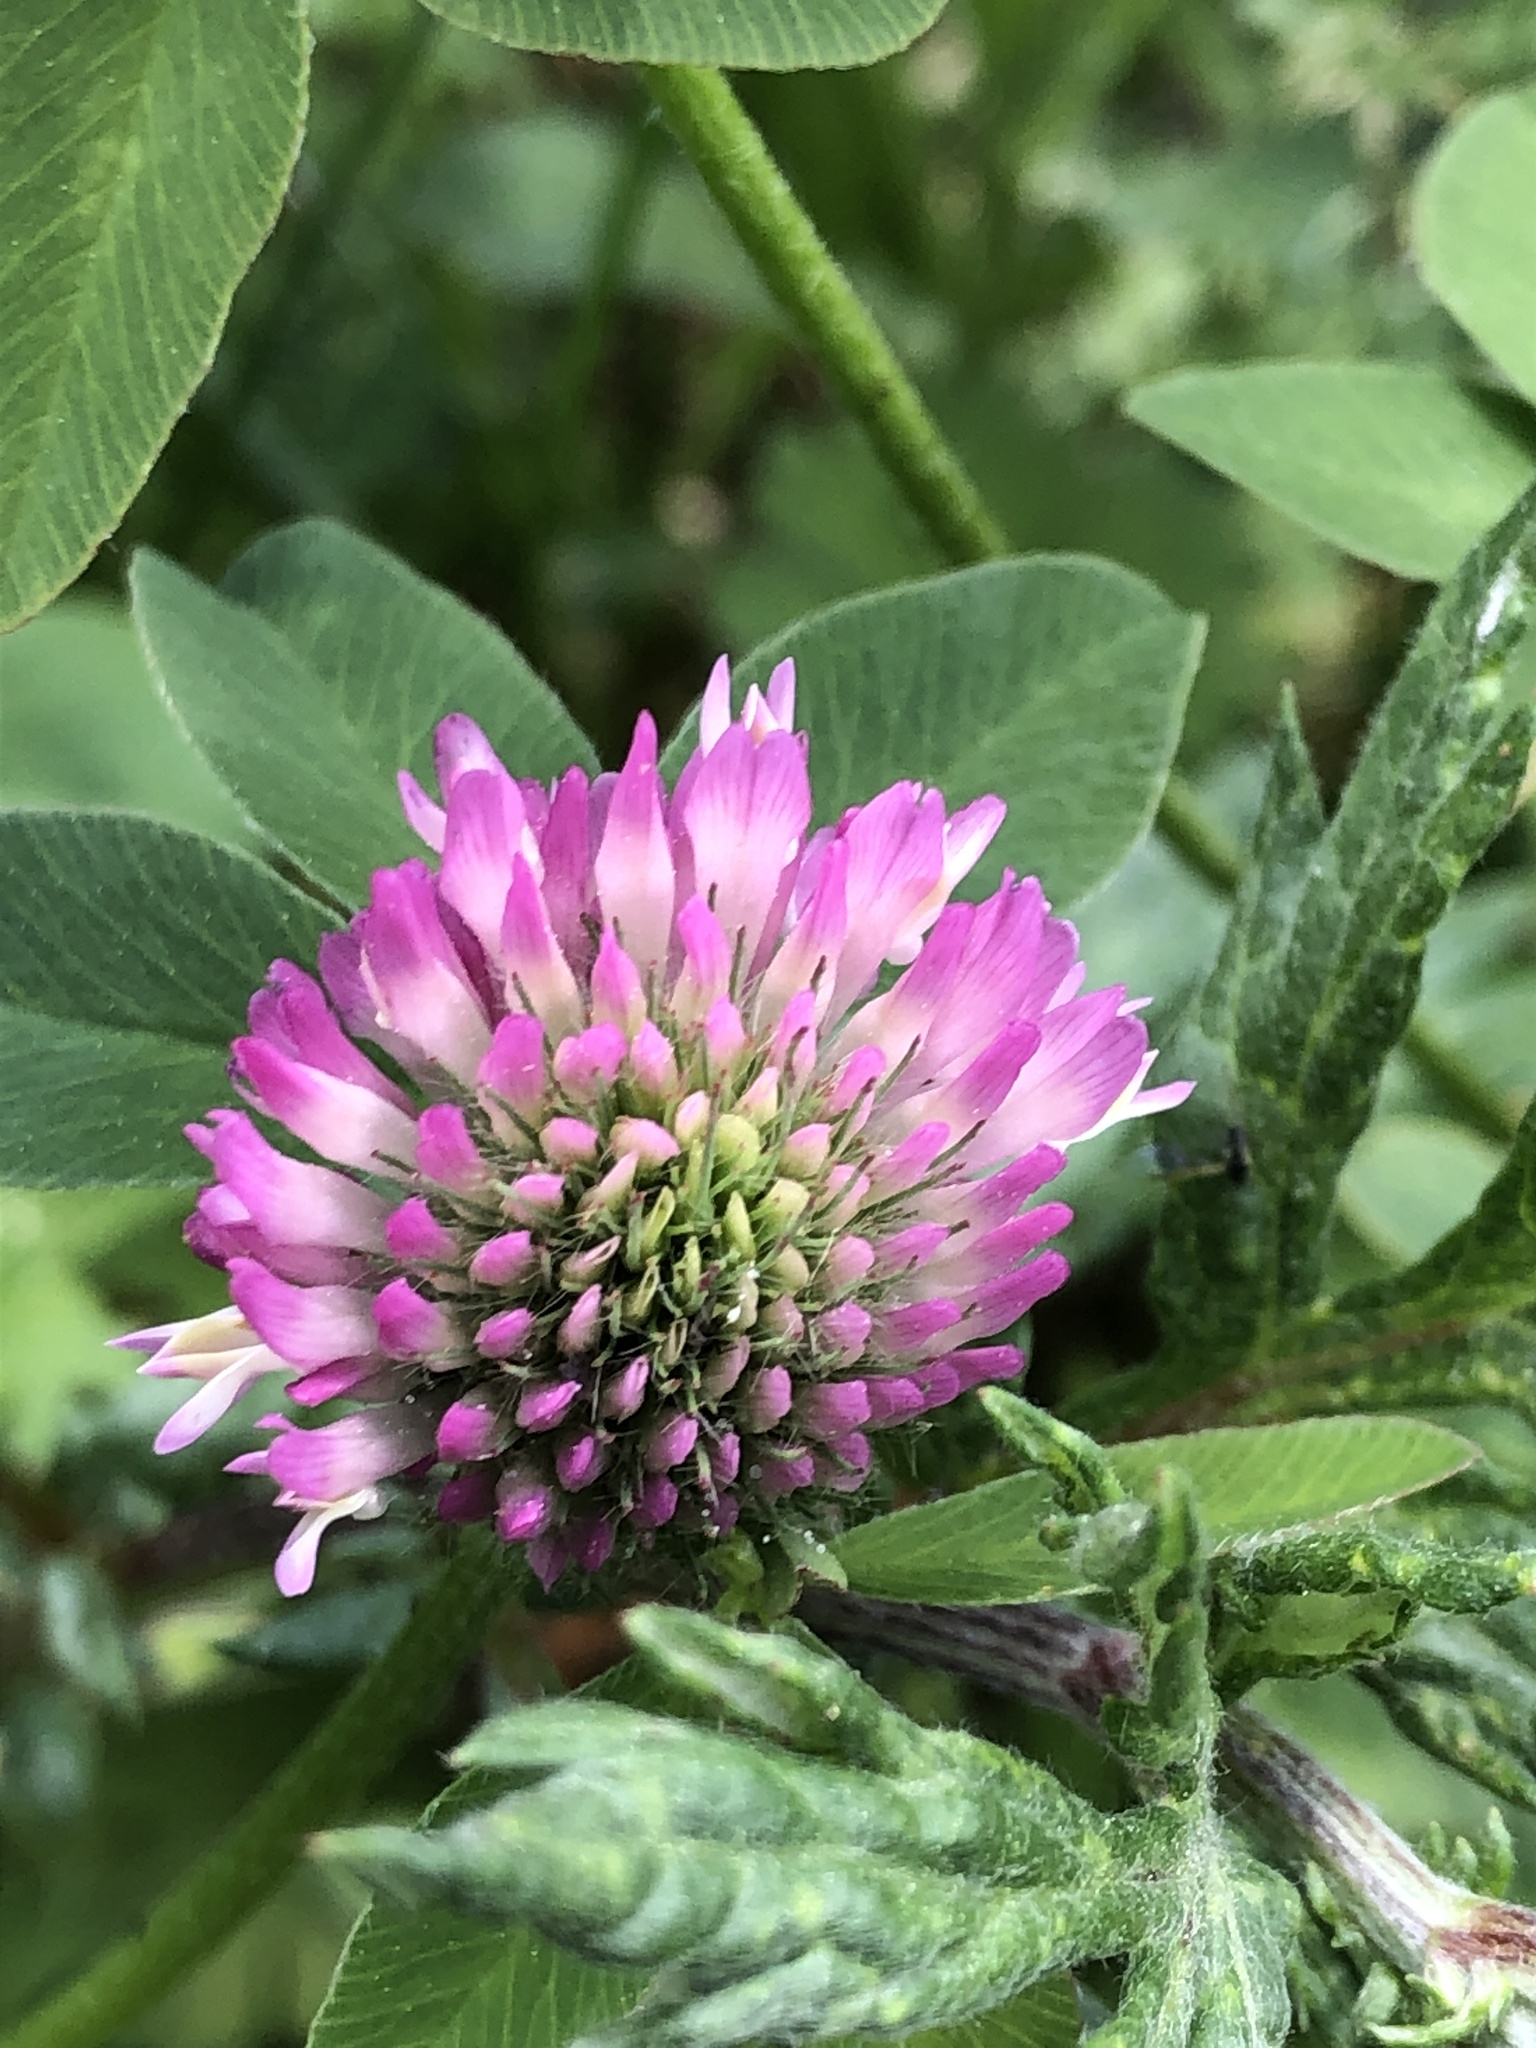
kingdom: Plantae
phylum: Tracheophyta
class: Magnoliopsida
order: Fabales
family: Fabaceae
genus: Trifolium
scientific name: Trifolium pratense
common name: Red clover
